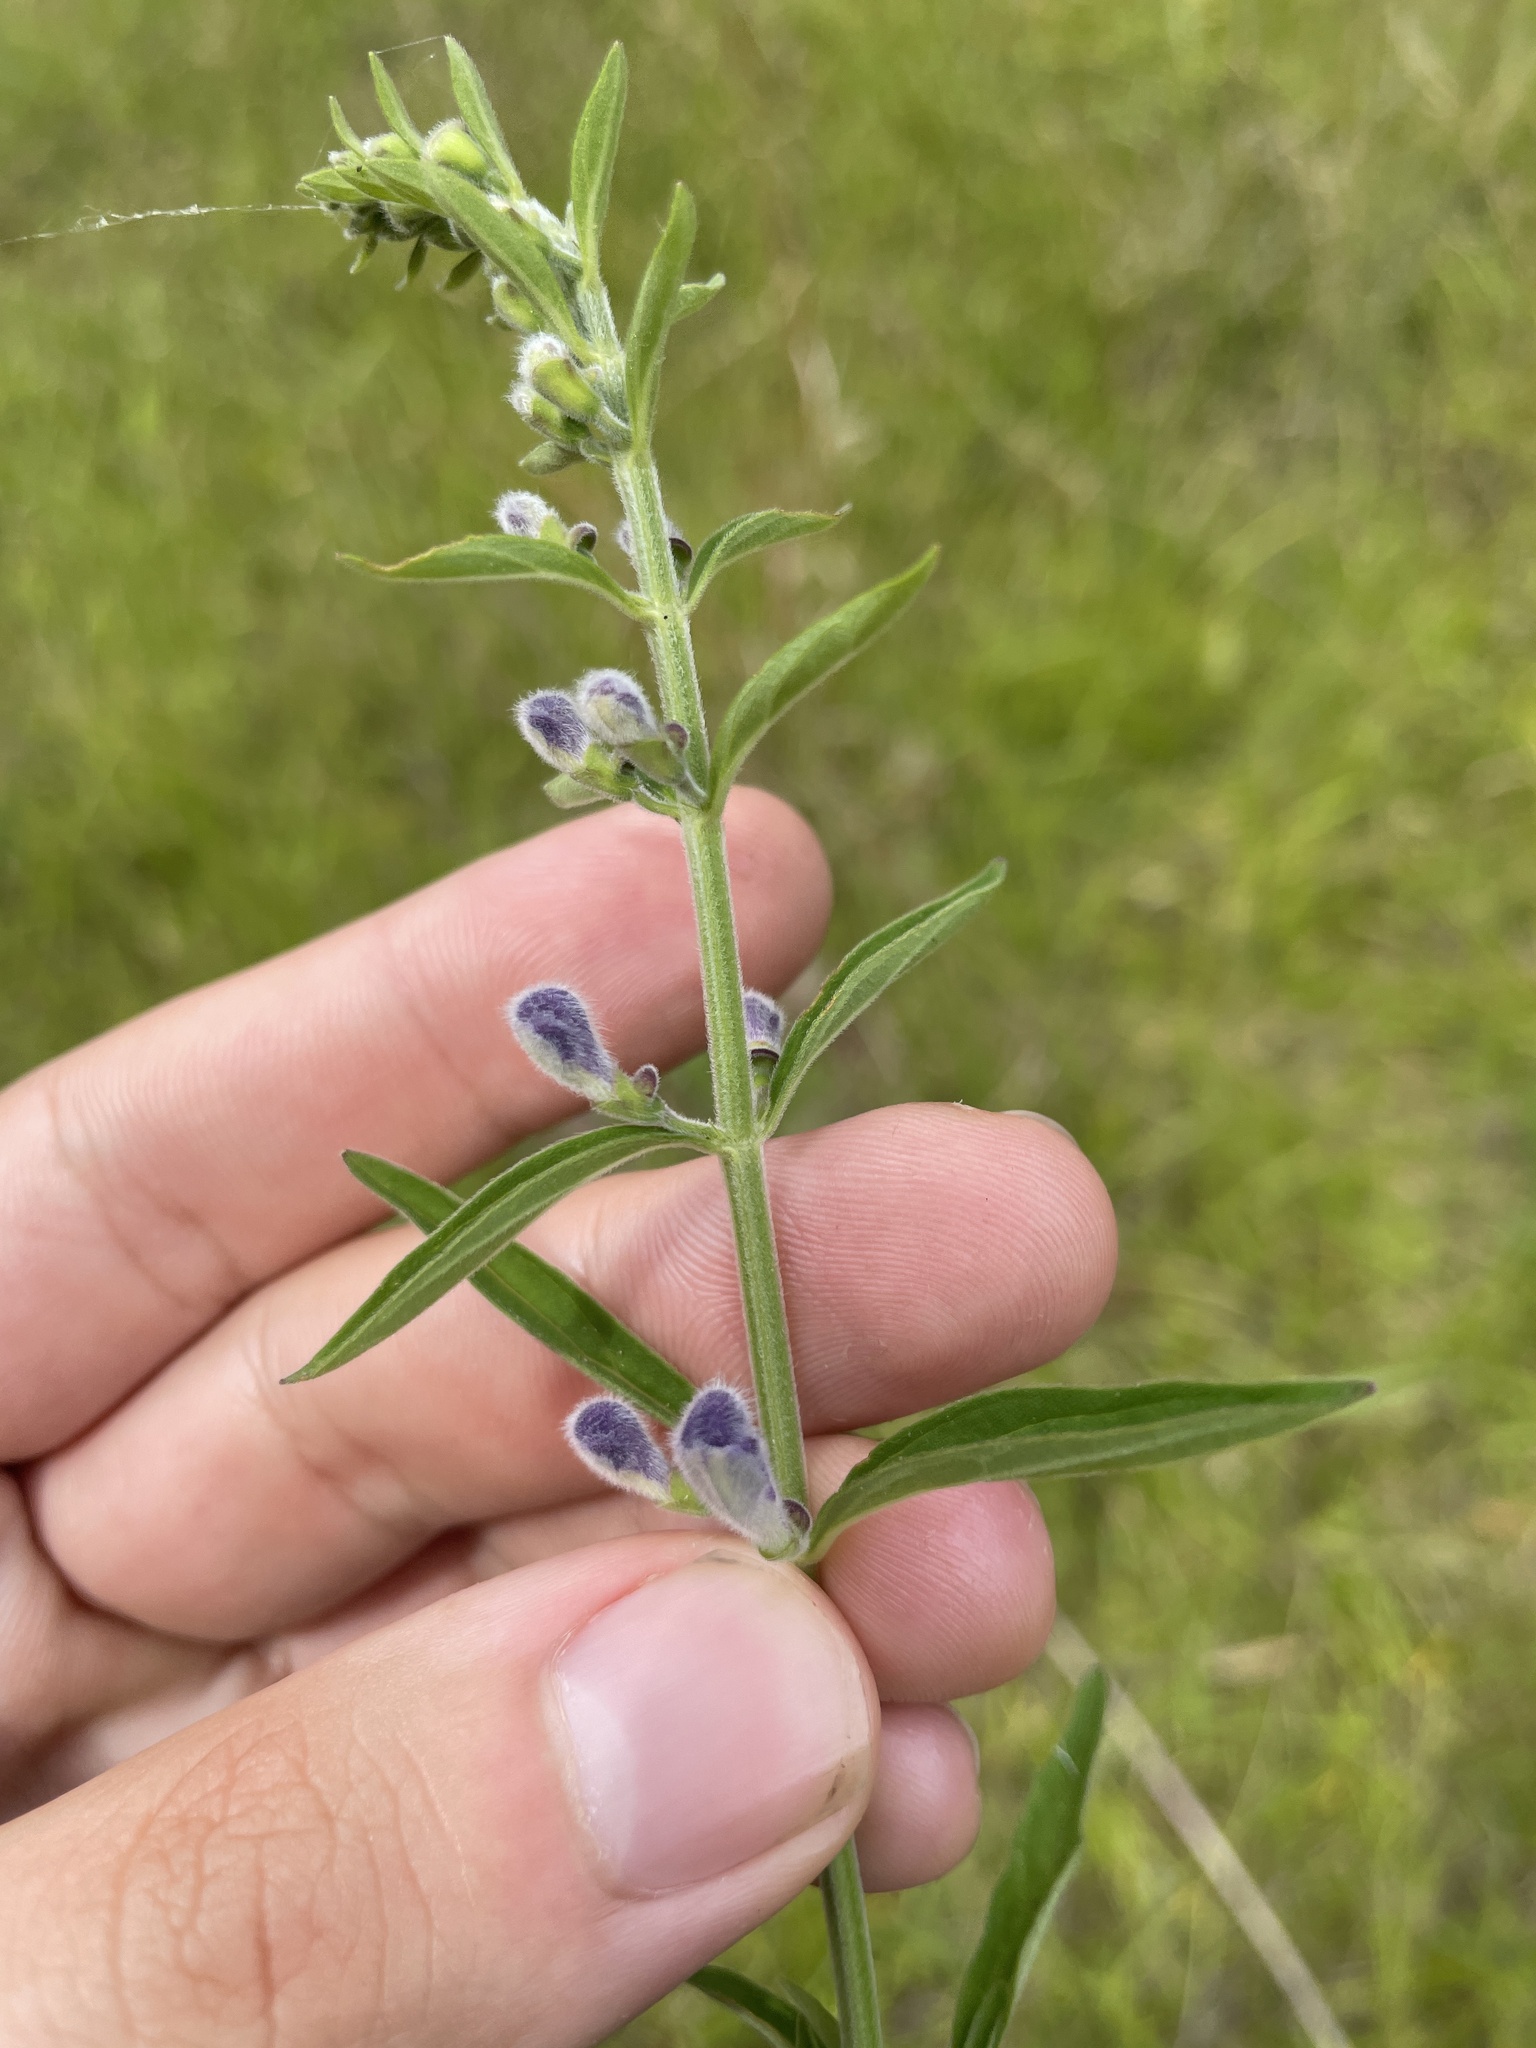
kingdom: Plantae
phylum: Tracheophyta
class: Magnoliopsida
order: Lamiales
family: Lamiaceae
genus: Scutellaria
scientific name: Scutellaria integrifolia
